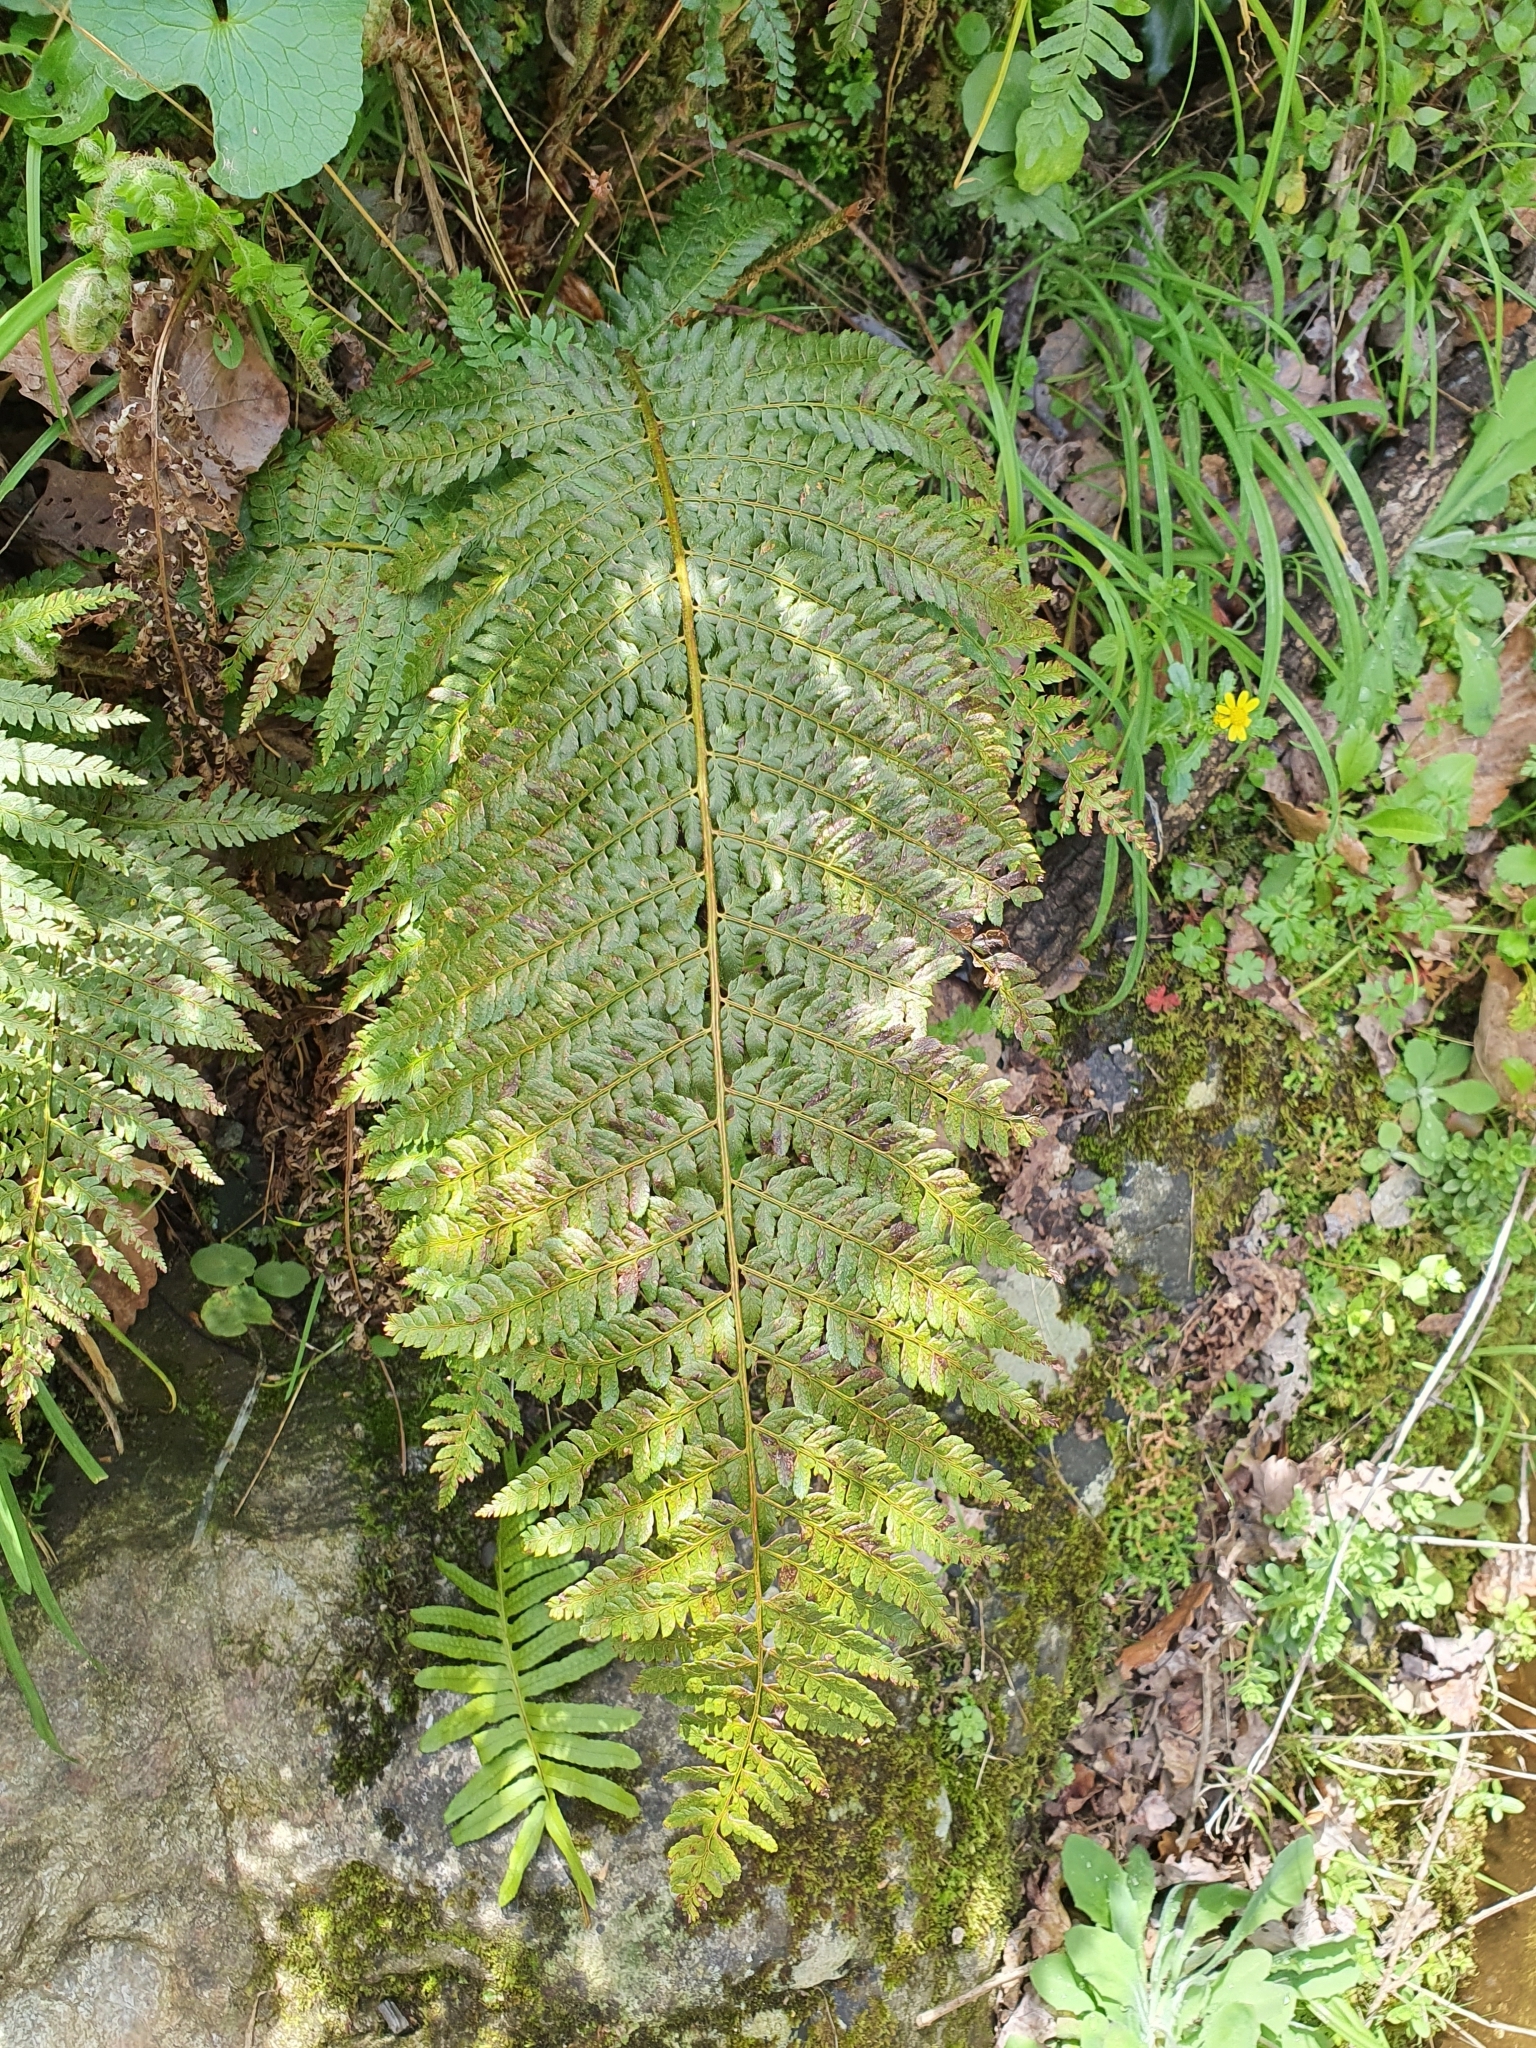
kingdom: Plantae
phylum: Tracheophyta
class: Polypodiopsida
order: Polypodiales
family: Dryopteridaceae
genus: Polystichum
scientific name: Polystichum setiferum
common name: Soft shield-fern
